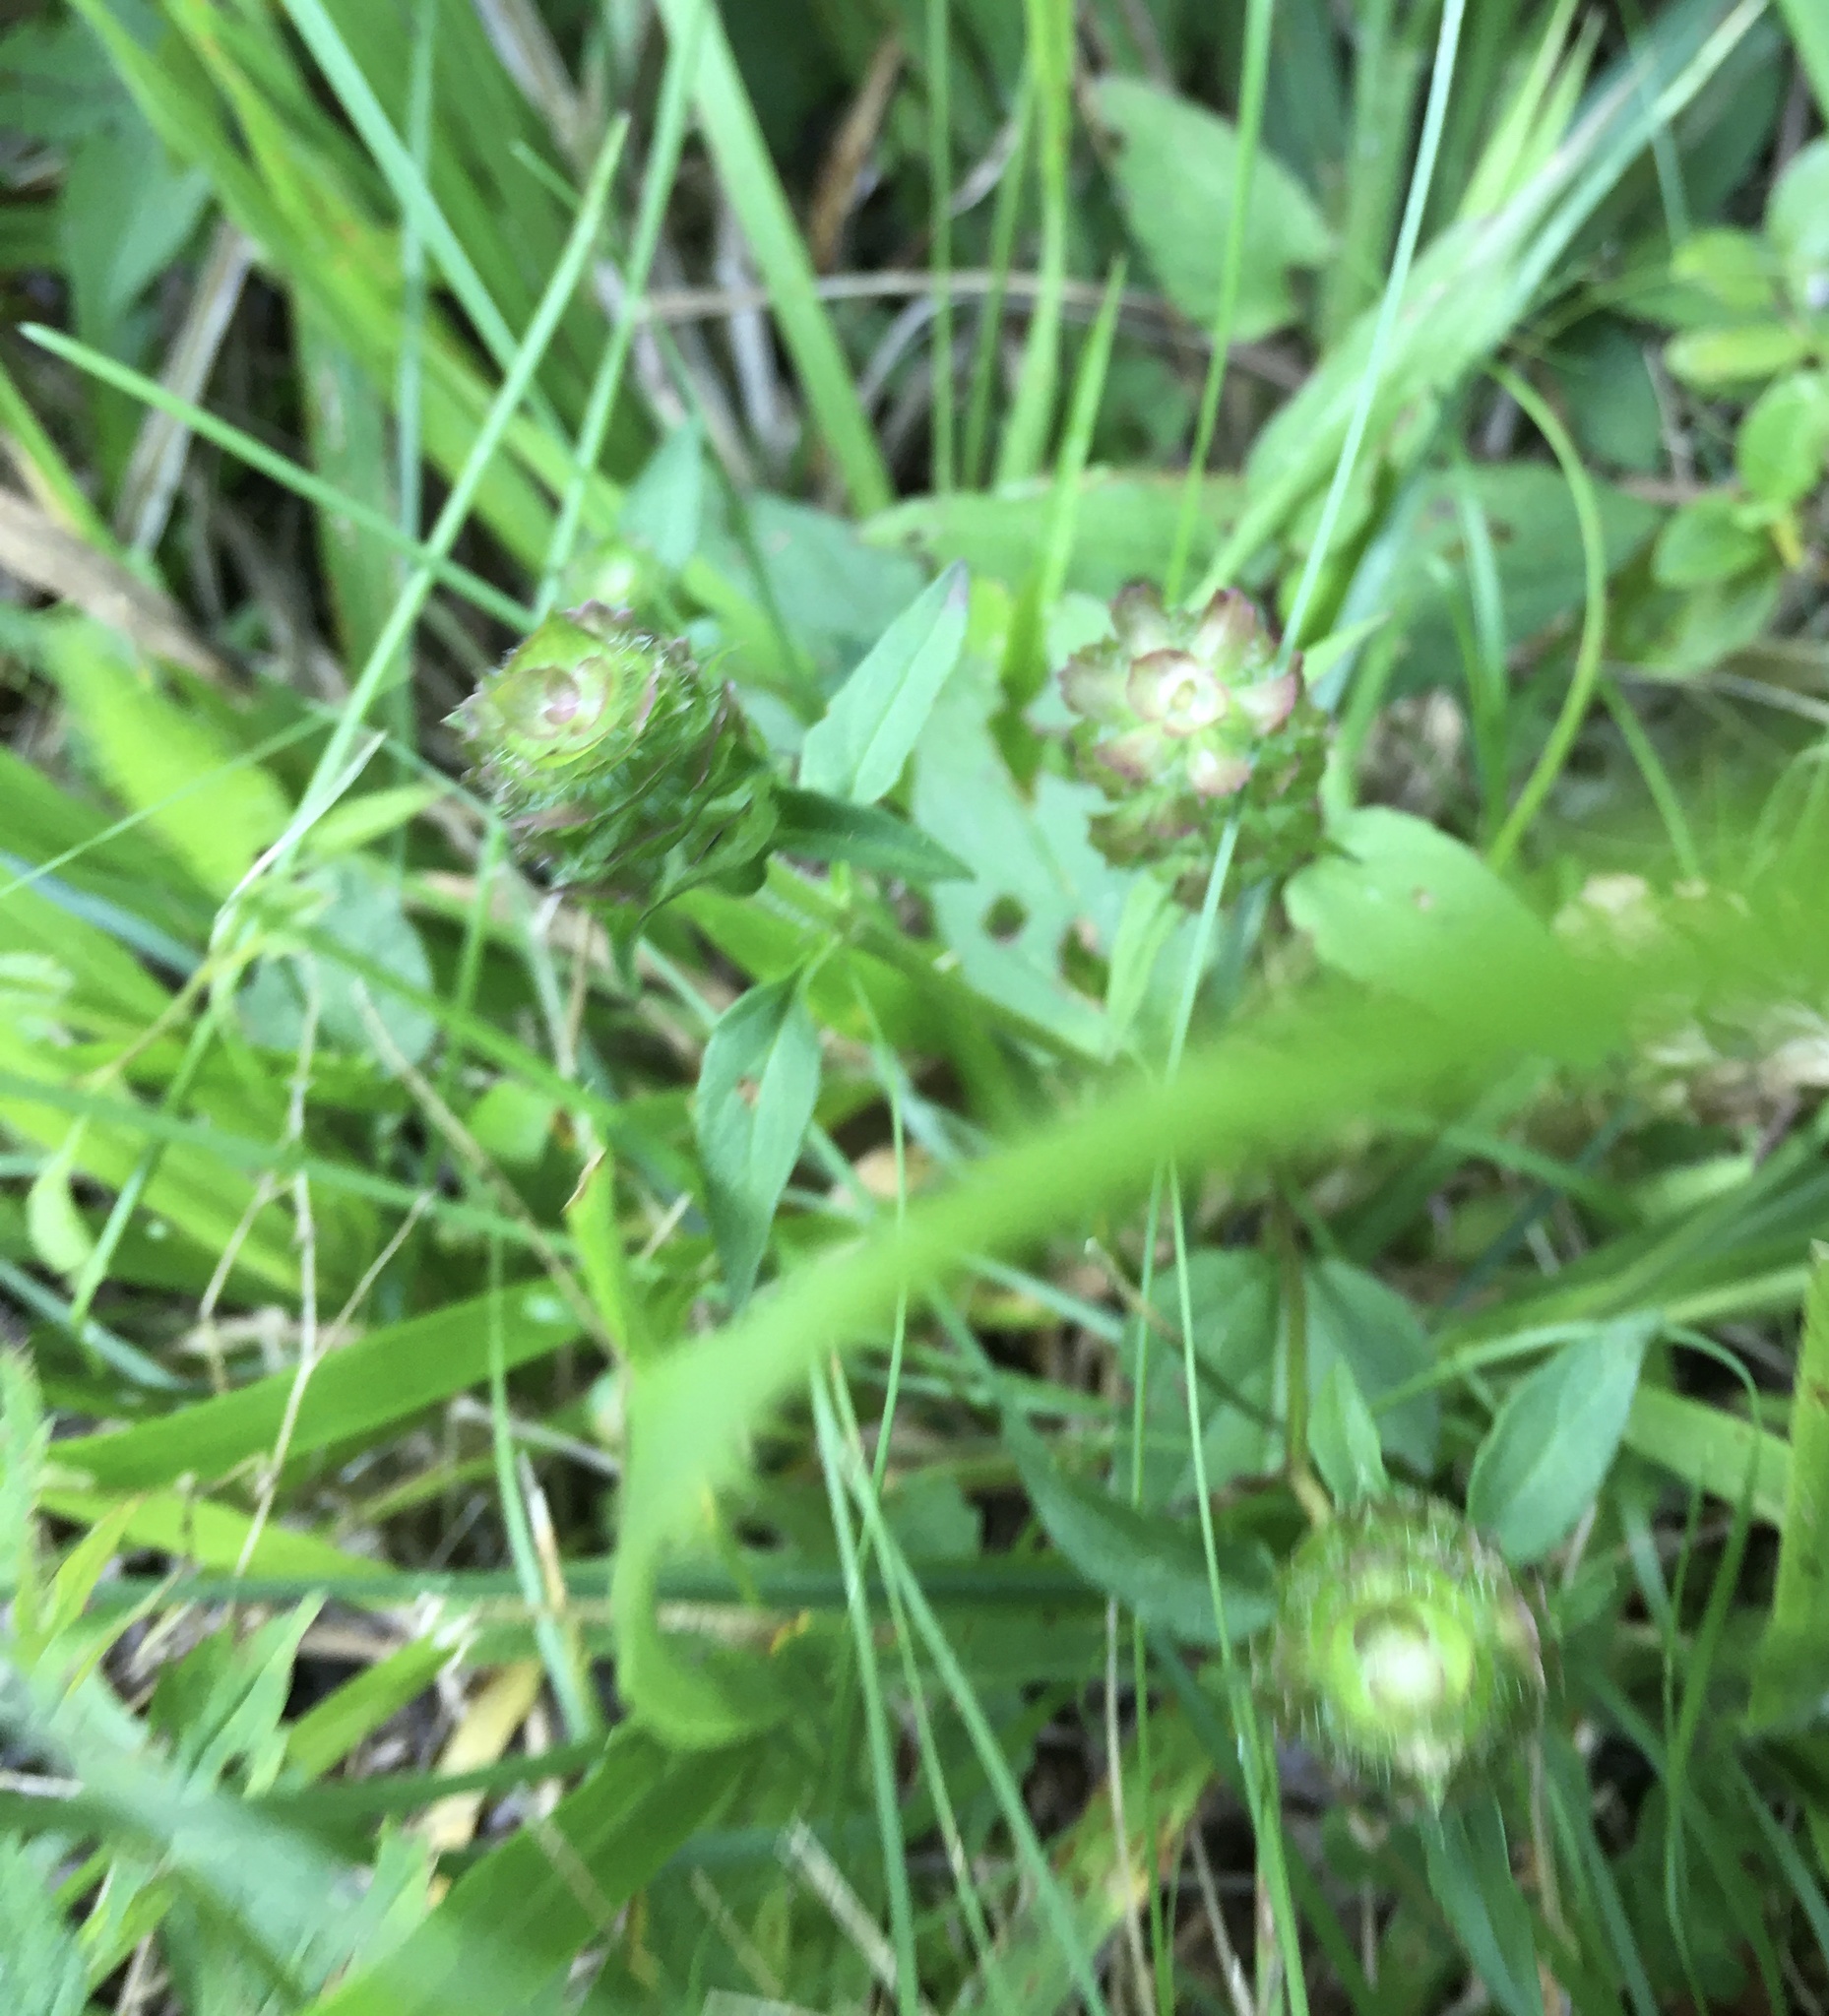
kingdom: Plantae
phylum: Tracheophyta
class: Magnoliopsida
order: Lamiales
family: Lamiaceae
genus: Prunella
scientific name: Prunella vulgaris
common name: Heal-all
